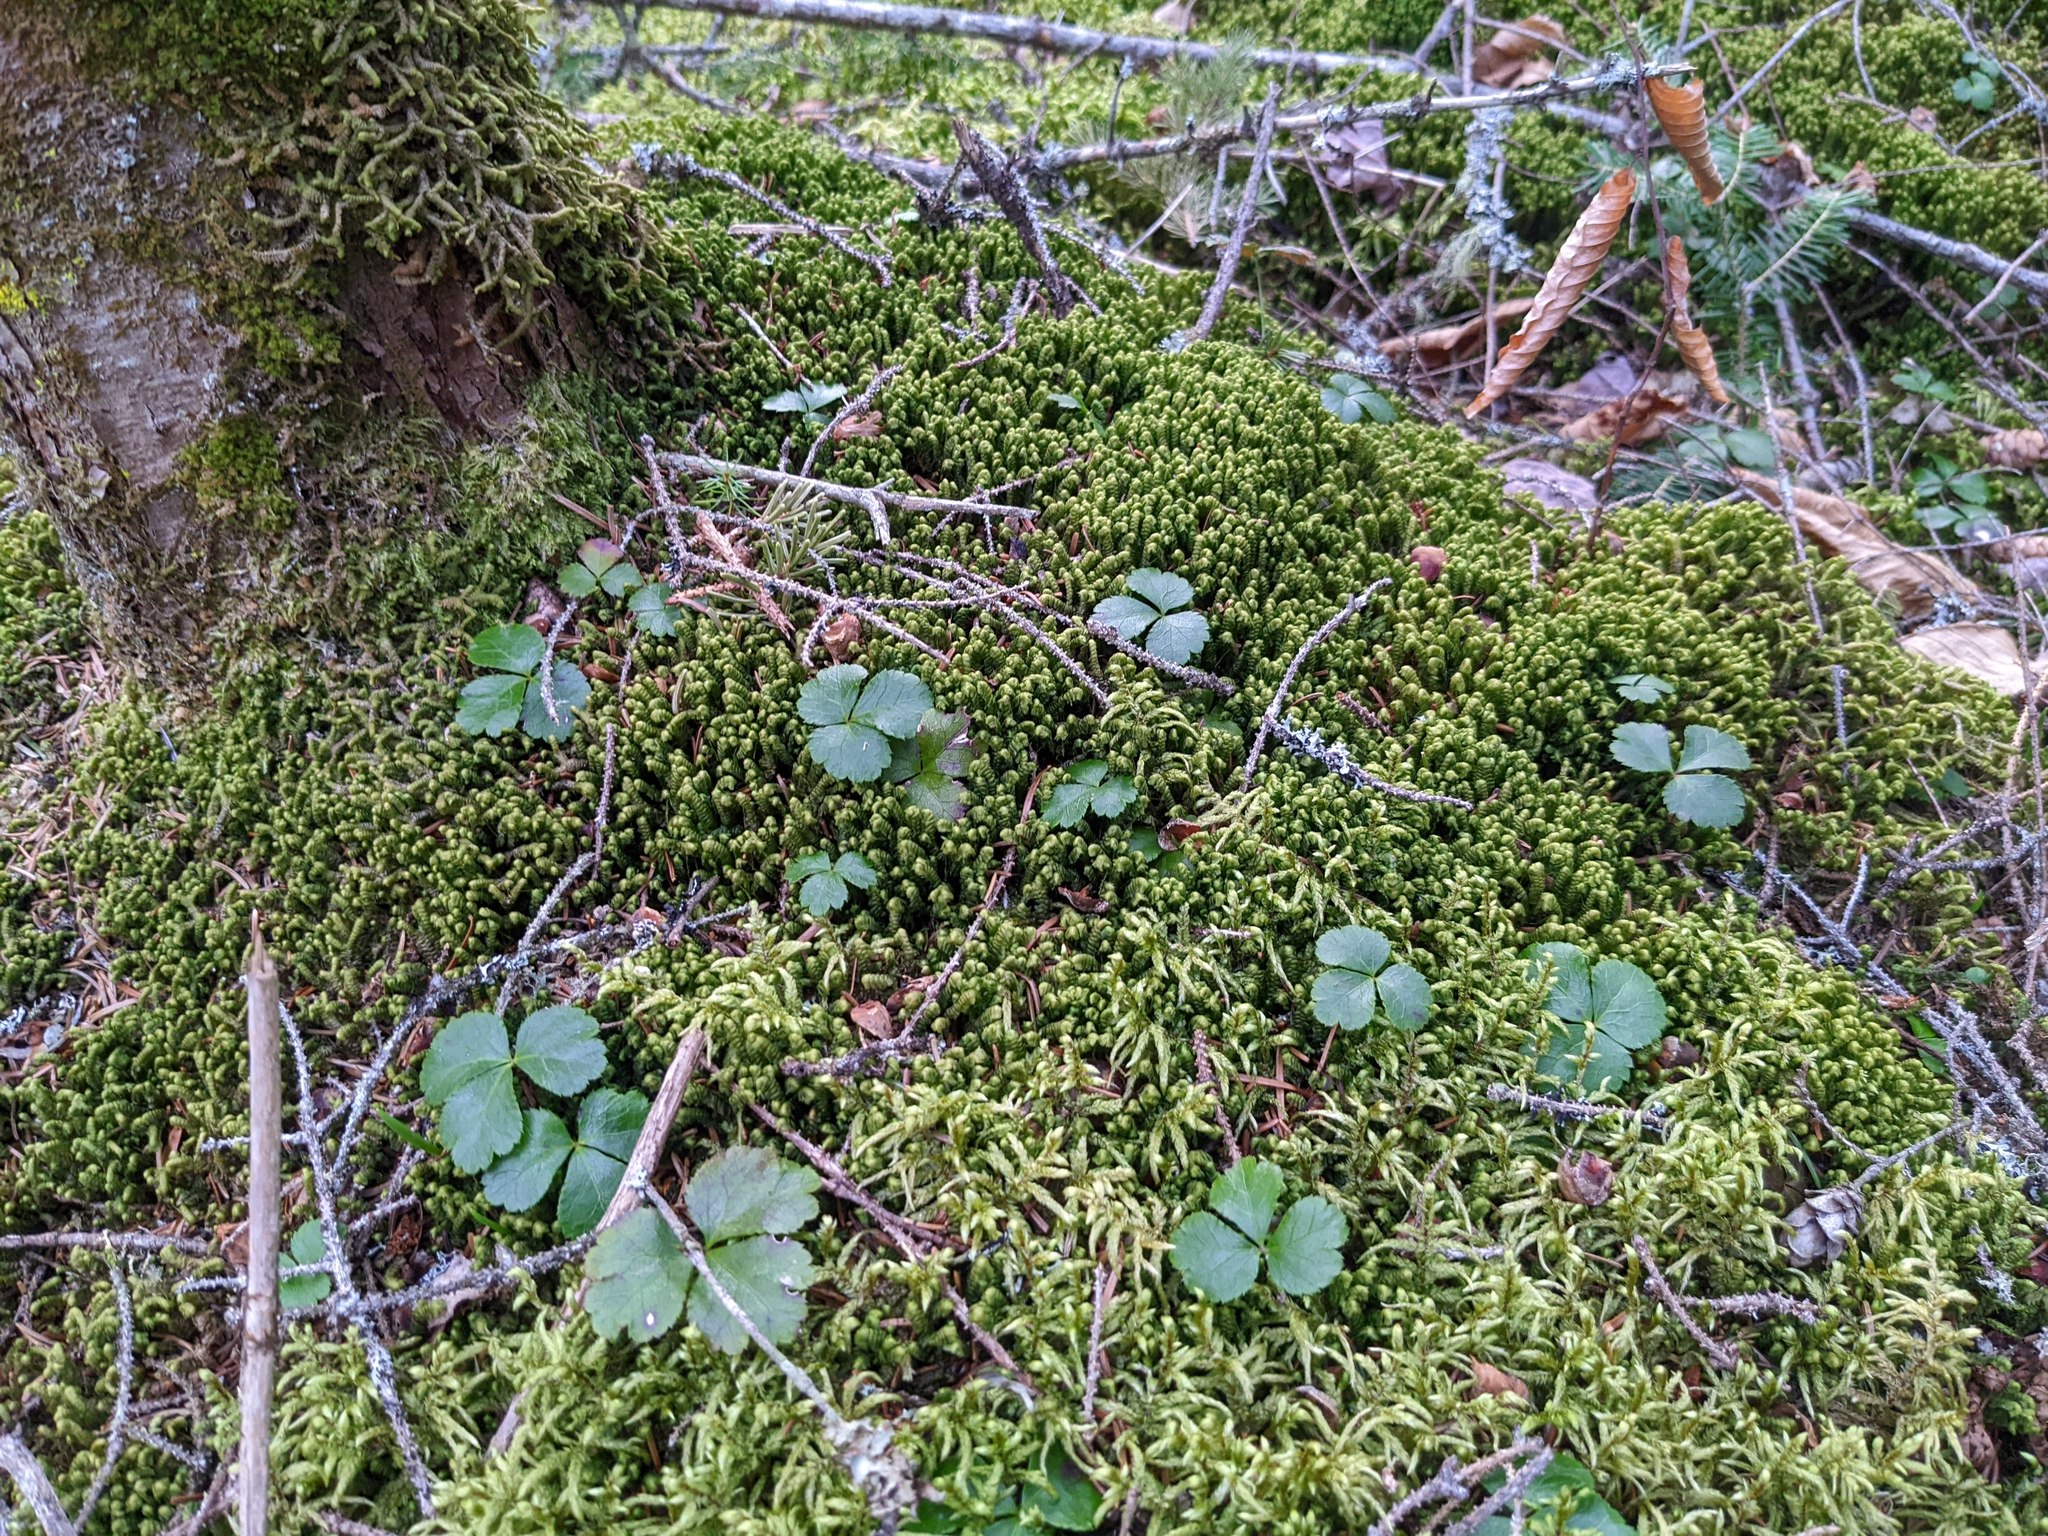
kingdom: Plantae
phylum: Tracheophyta
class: Magnoliopsida
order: Ranunculales
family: Ranunculaceae
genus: Coptis
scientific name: Coptis trifolia
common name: Canker-root
